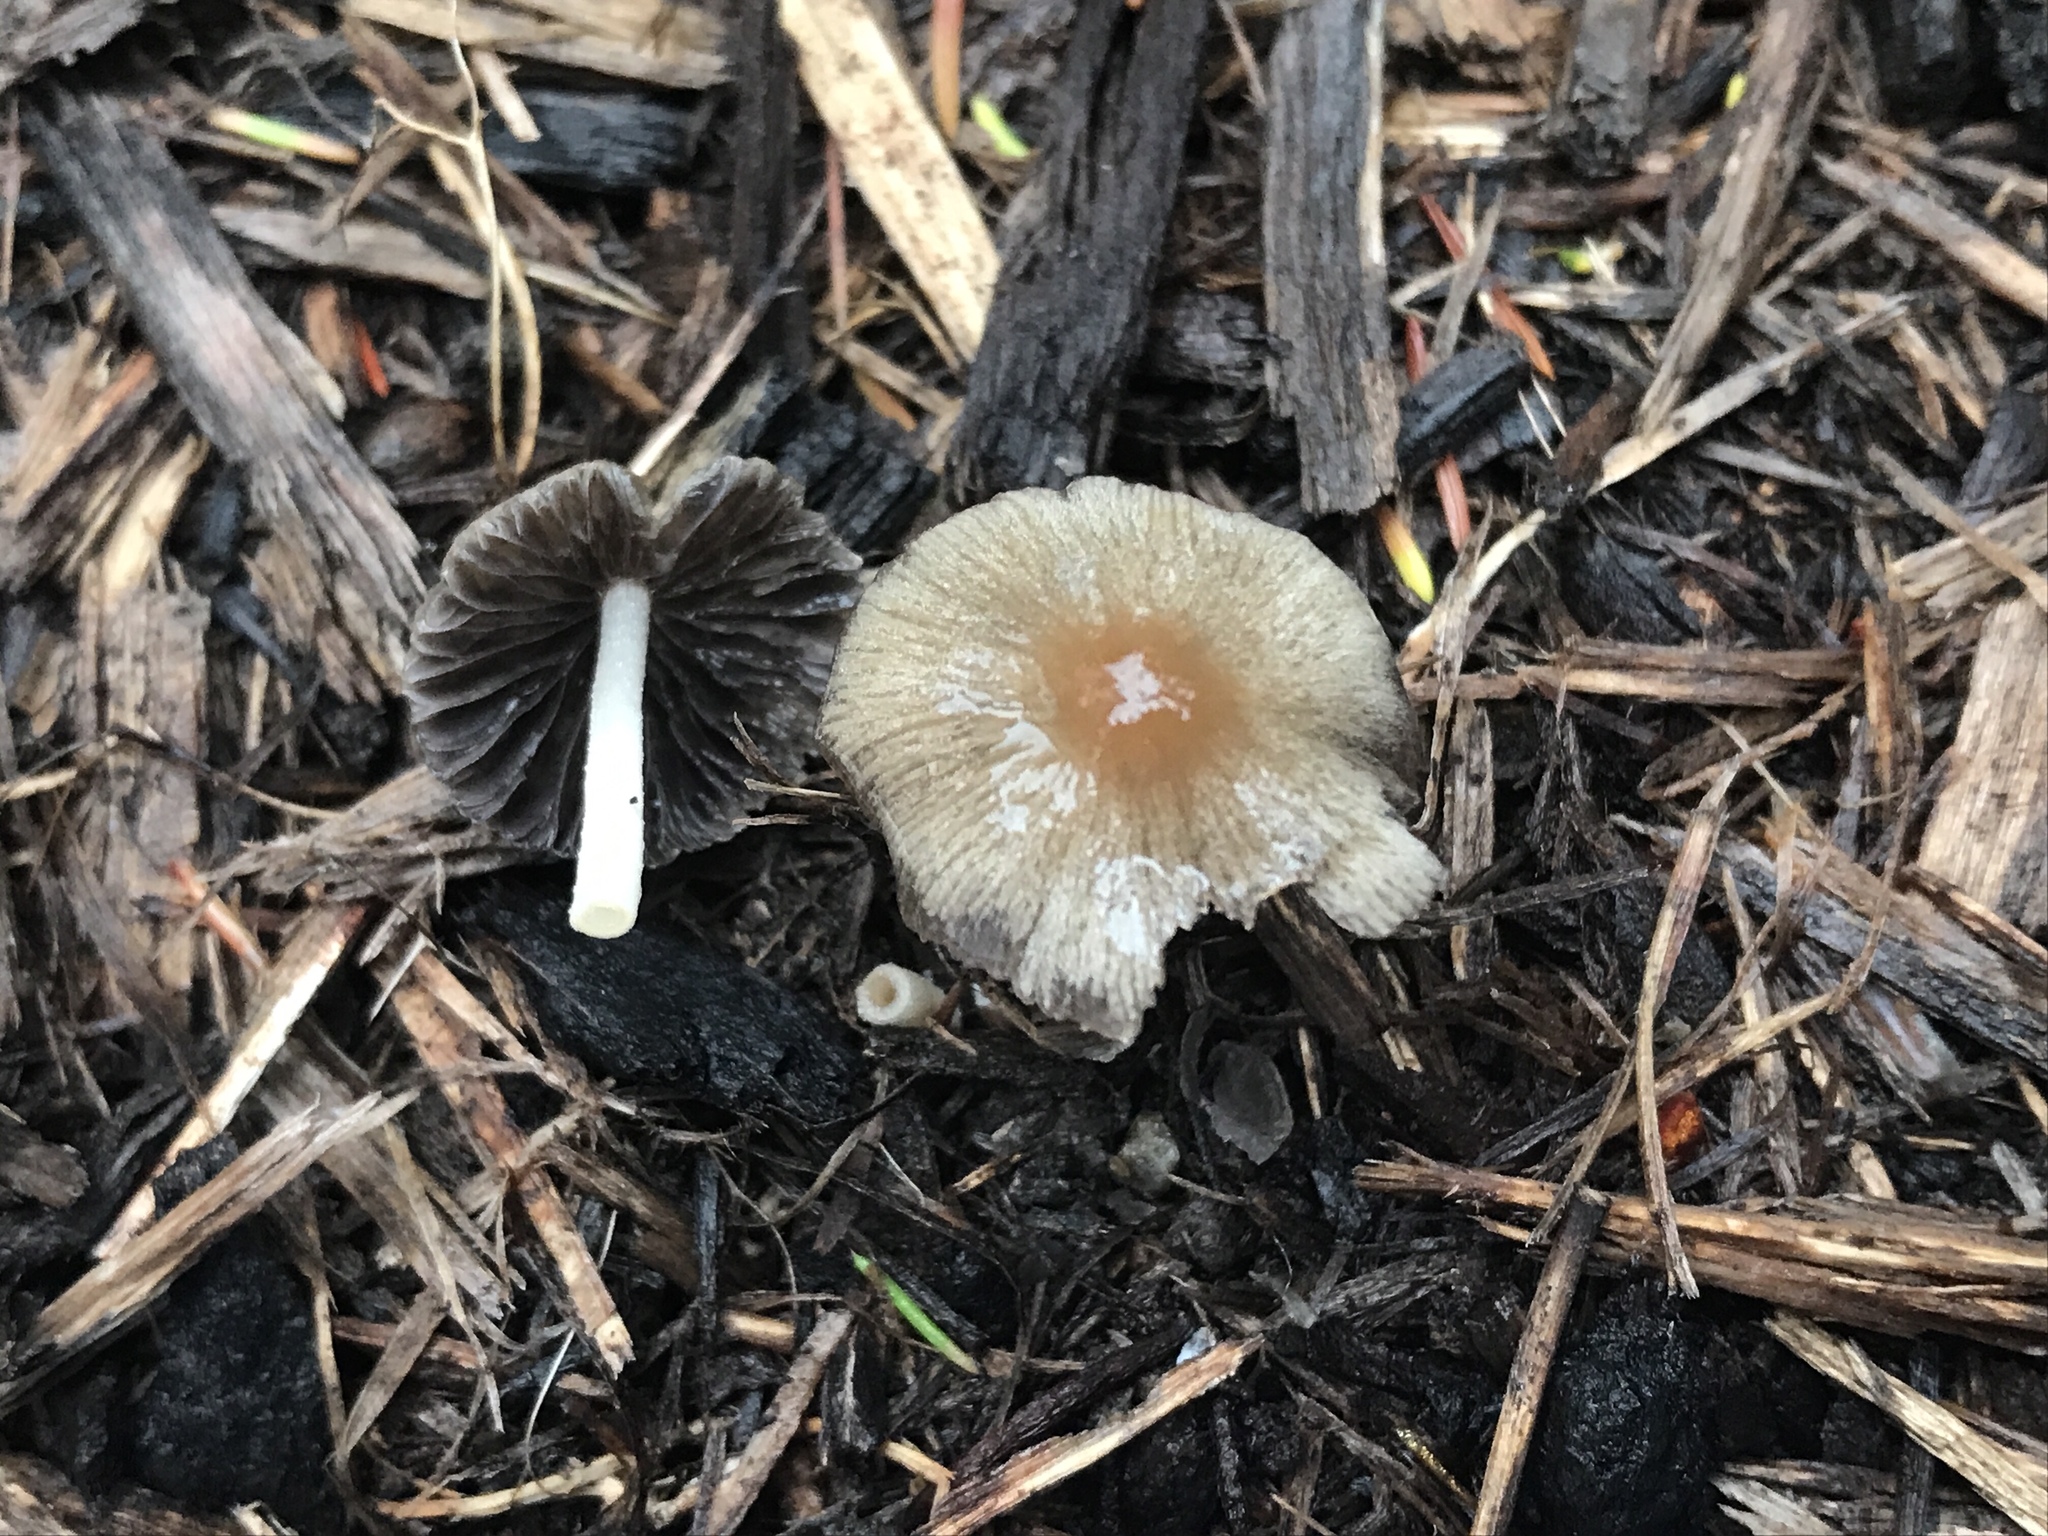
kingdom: Fungi
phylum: Basidiomycota
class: Agaricomycetes
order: Agaricales
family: Psathyrellaceae
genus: Psathyrella
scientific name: Psathyrella spadiceogrisea
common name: Spring brittlestem
